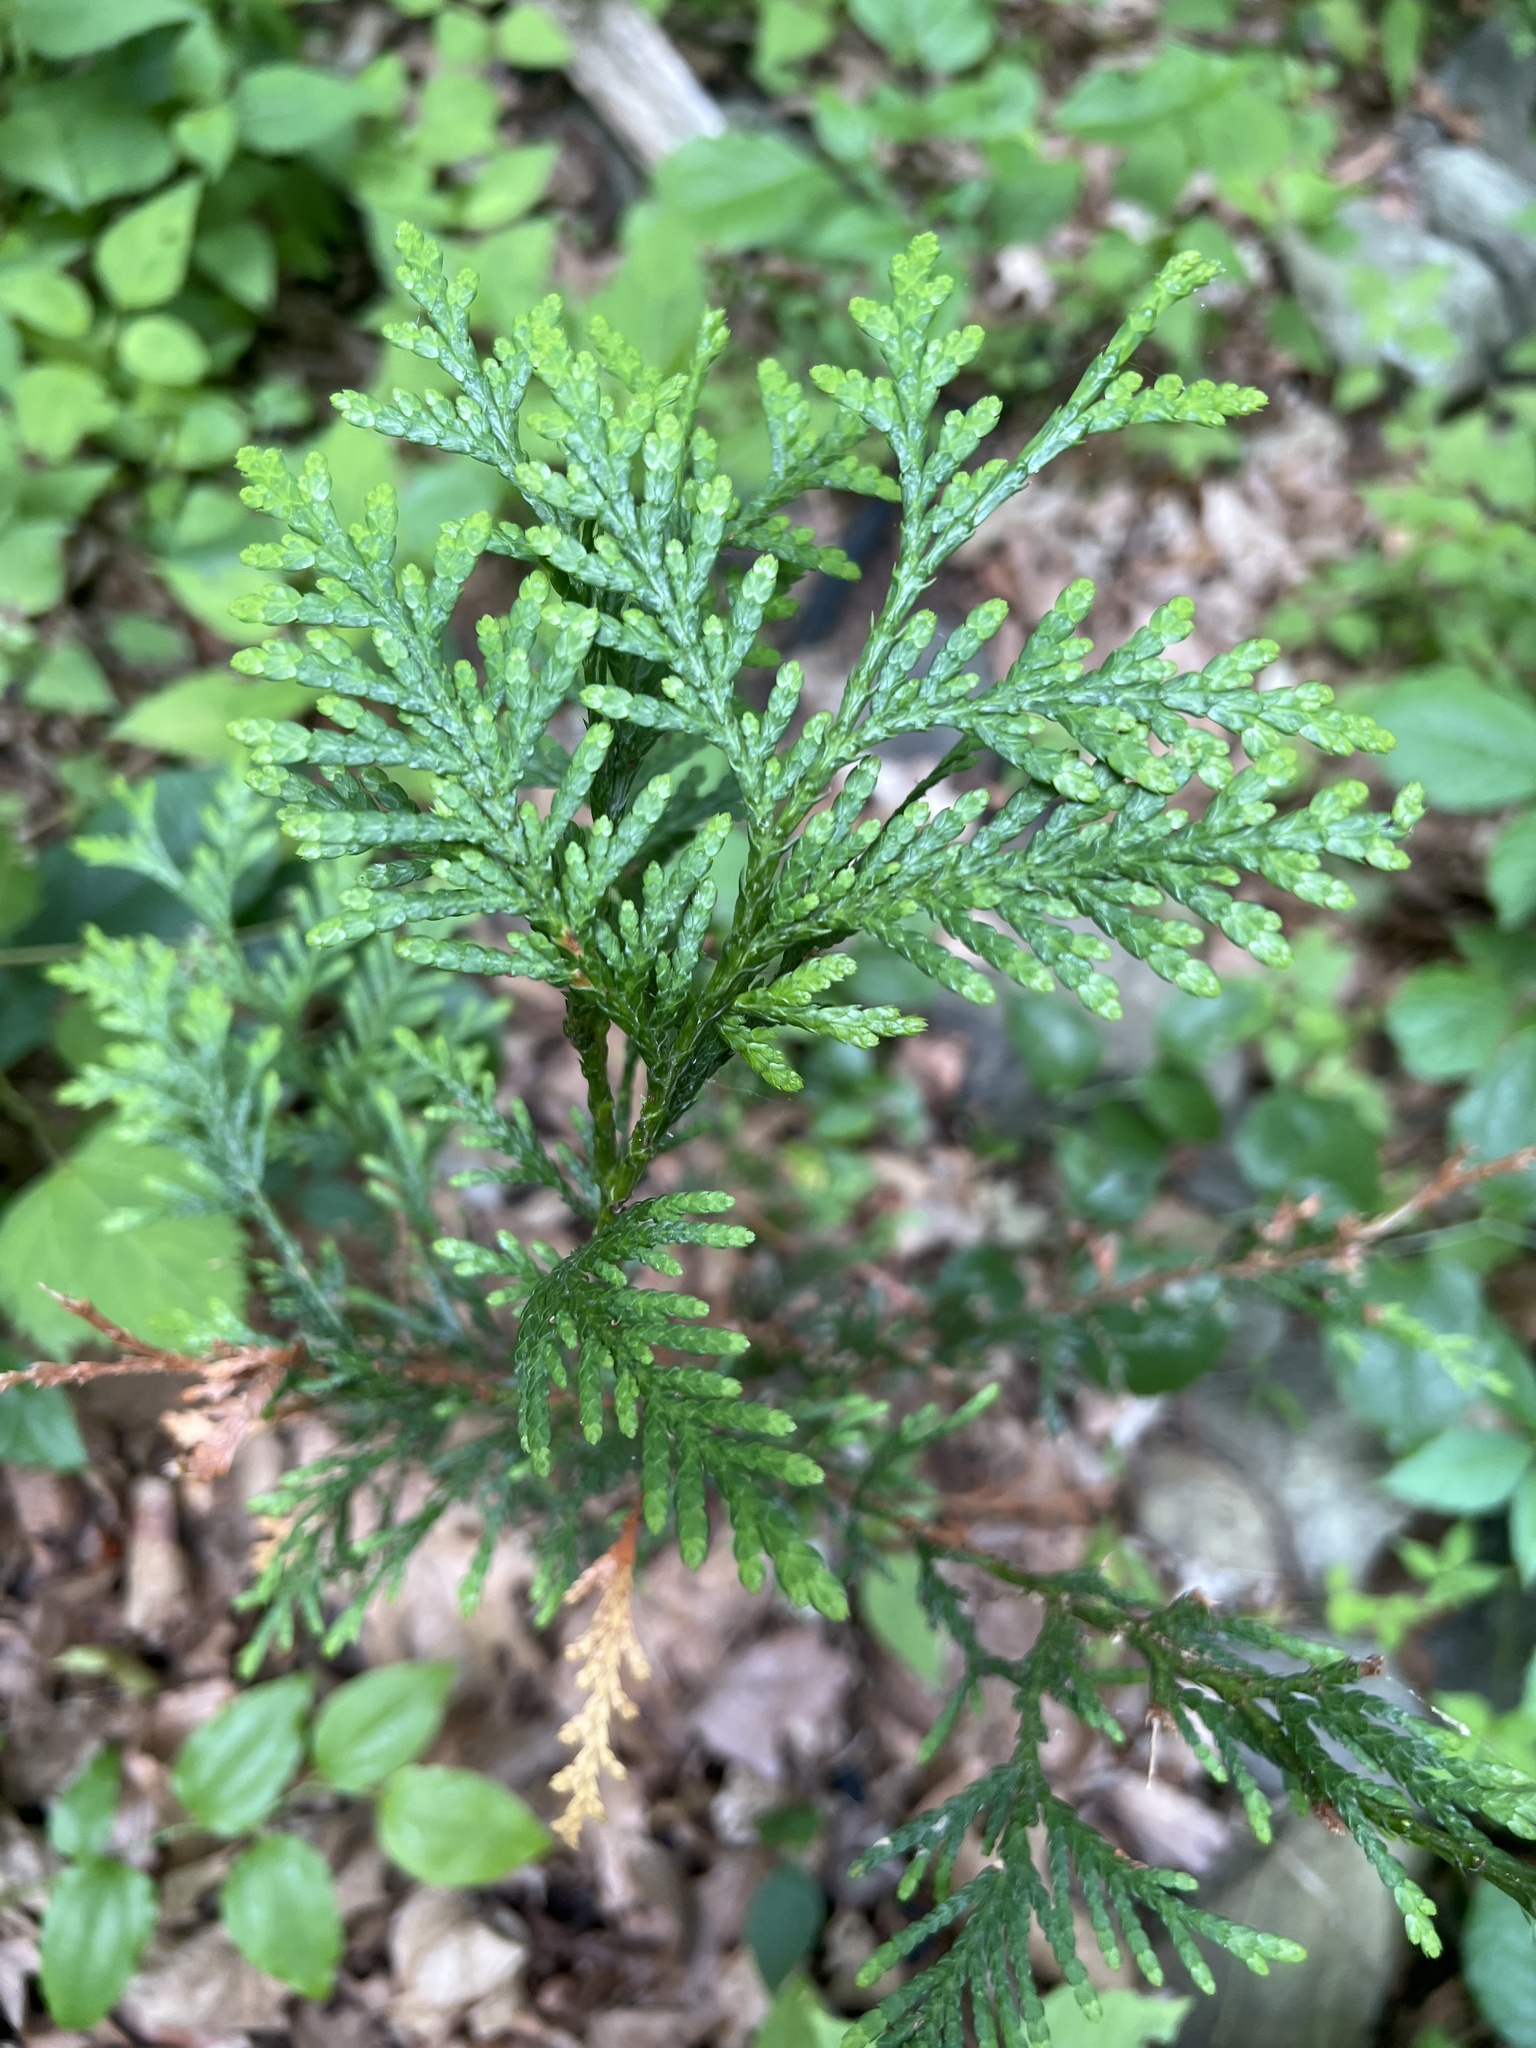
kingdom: Plantae
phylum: Tracheophyta
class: Pinopsida
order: Pinales
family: Cupressaceae
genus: Thuja
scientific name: Thuja occidentalis
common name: Northern white-cedar
